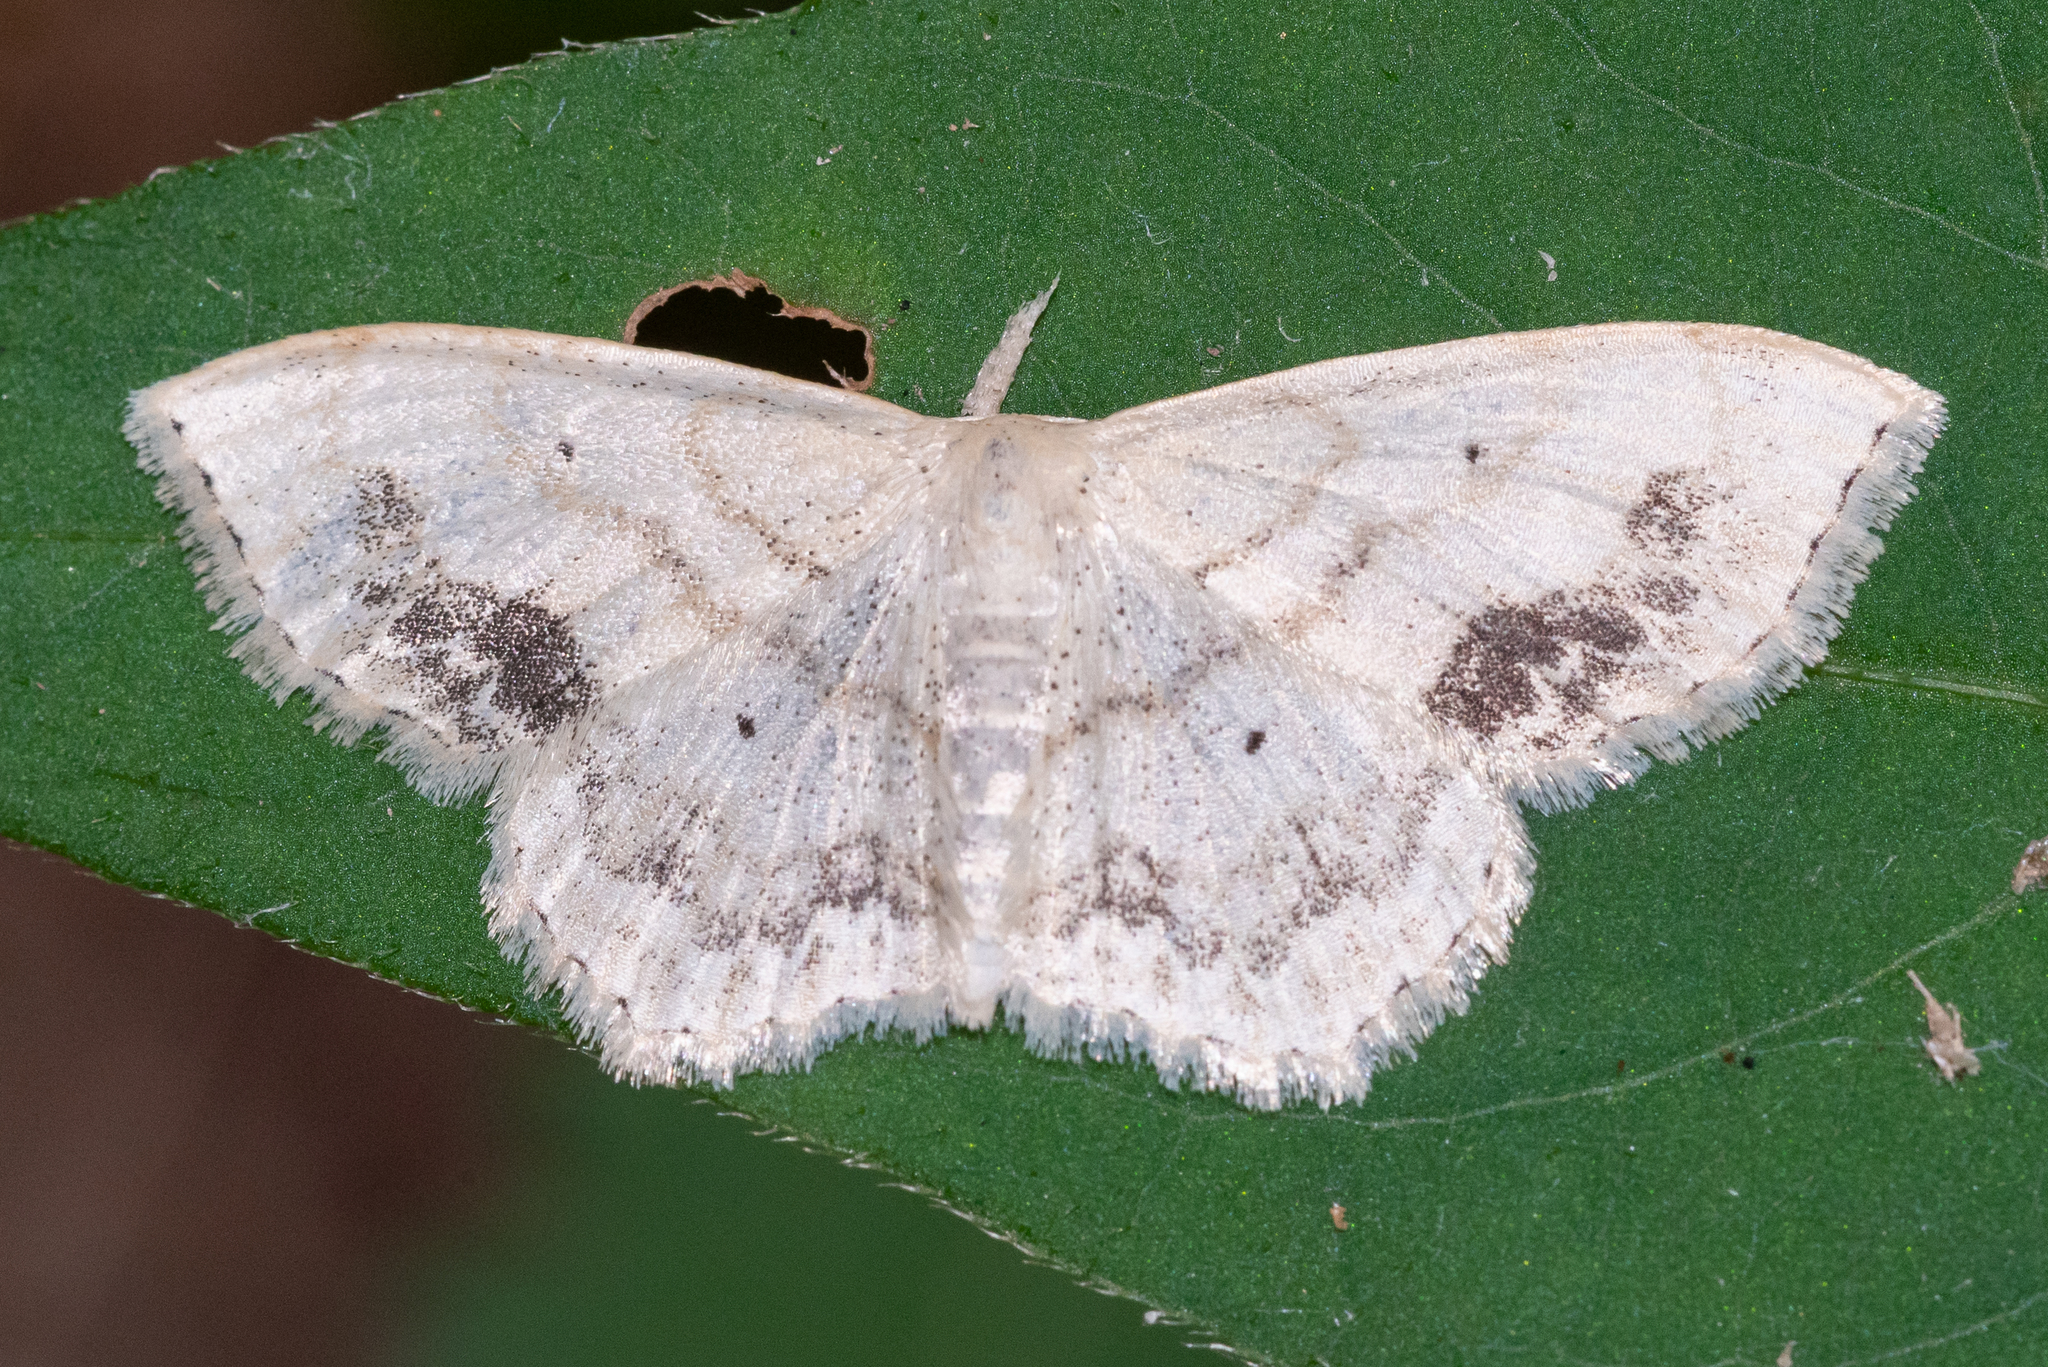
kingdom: Animalia
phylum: Arthropoda
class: Insecta
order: Lepidoptera
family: Geometridae
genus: Scopula
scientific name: Scopula limboundata
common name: Large lace border
